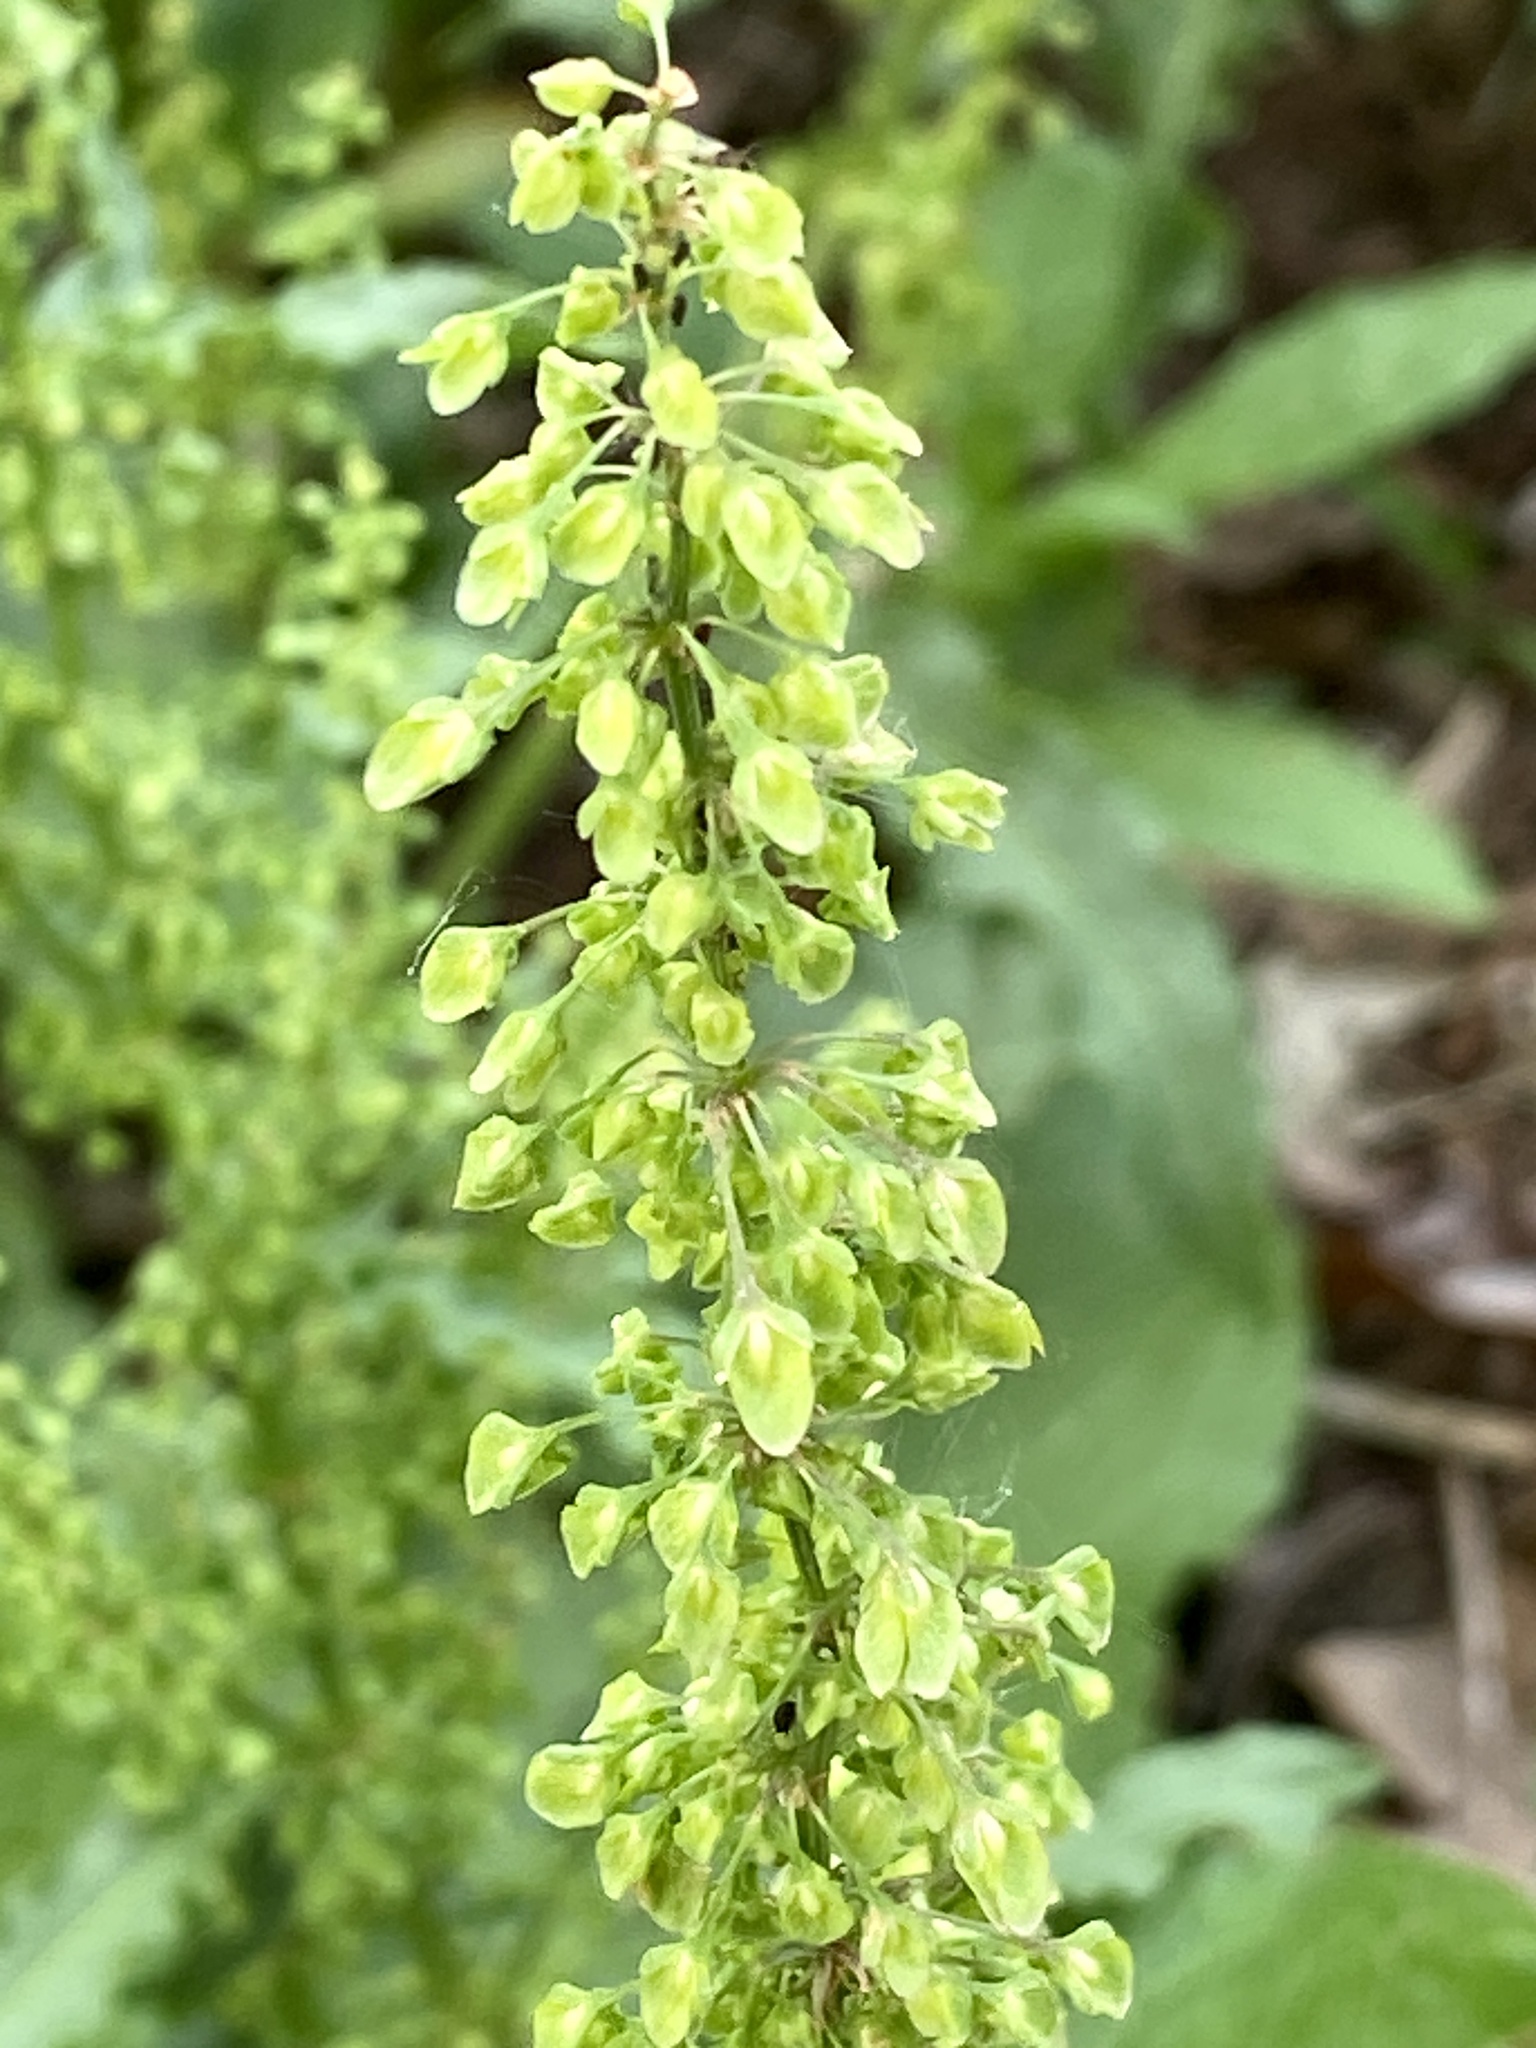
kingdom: Plantae
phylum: Tracheophyta
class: Magnoliopsida
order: Caryophyllales
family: Polygonaceae
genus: Rumex
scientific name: Rumex crispus
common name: Curled dock
